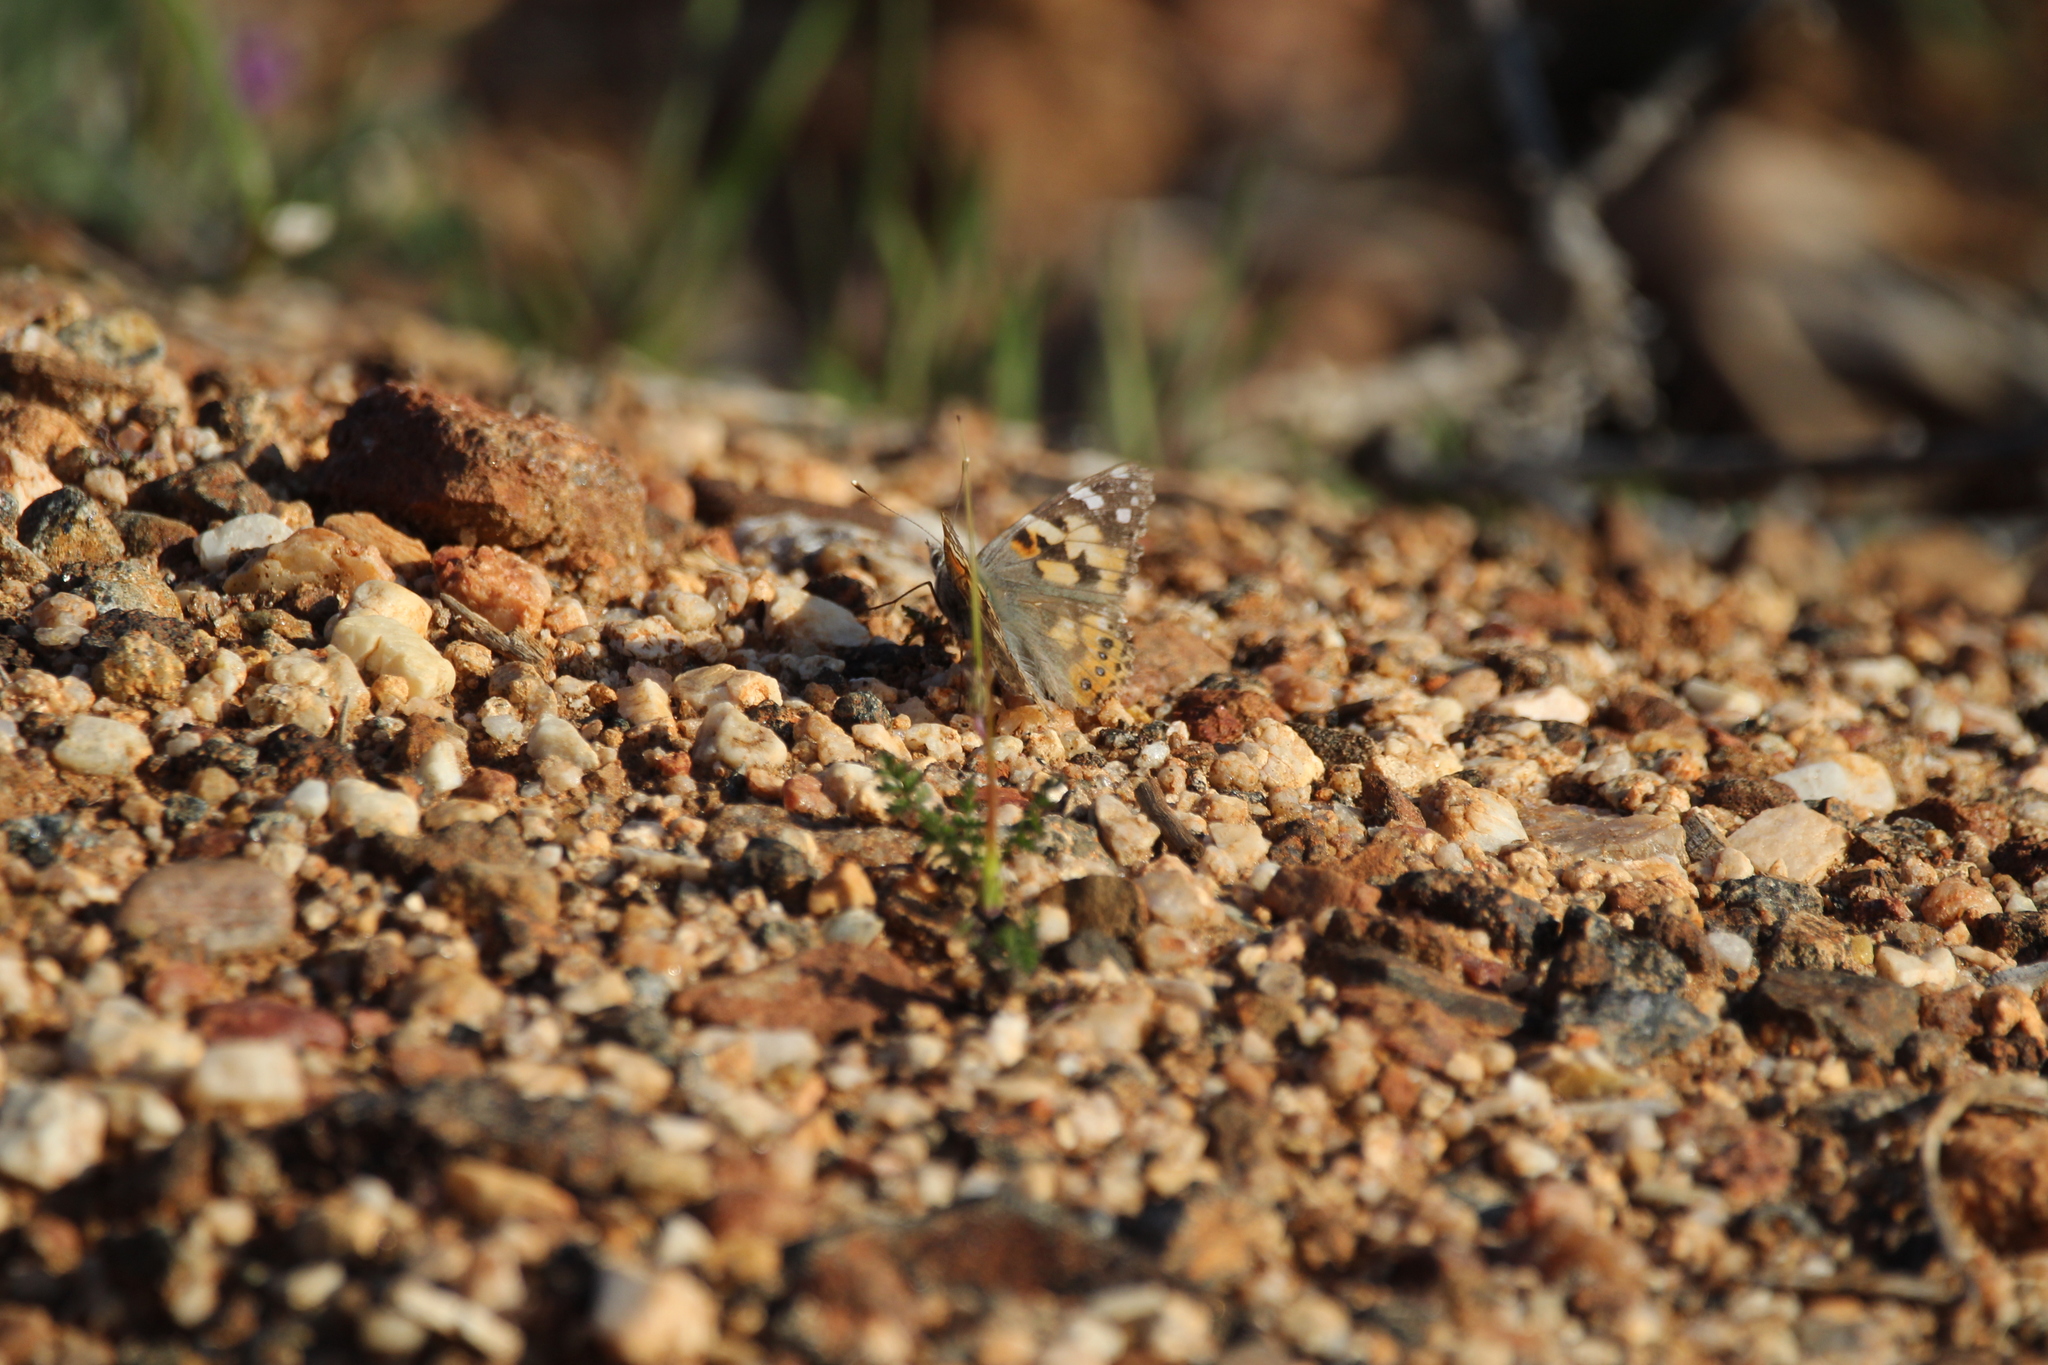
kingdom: Animalia
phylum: Arthropoda
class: Insecta
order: Lepidoptera
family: Nymphalidae
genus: Vanessa
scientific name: Vanessa cardui
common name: Painted lady
